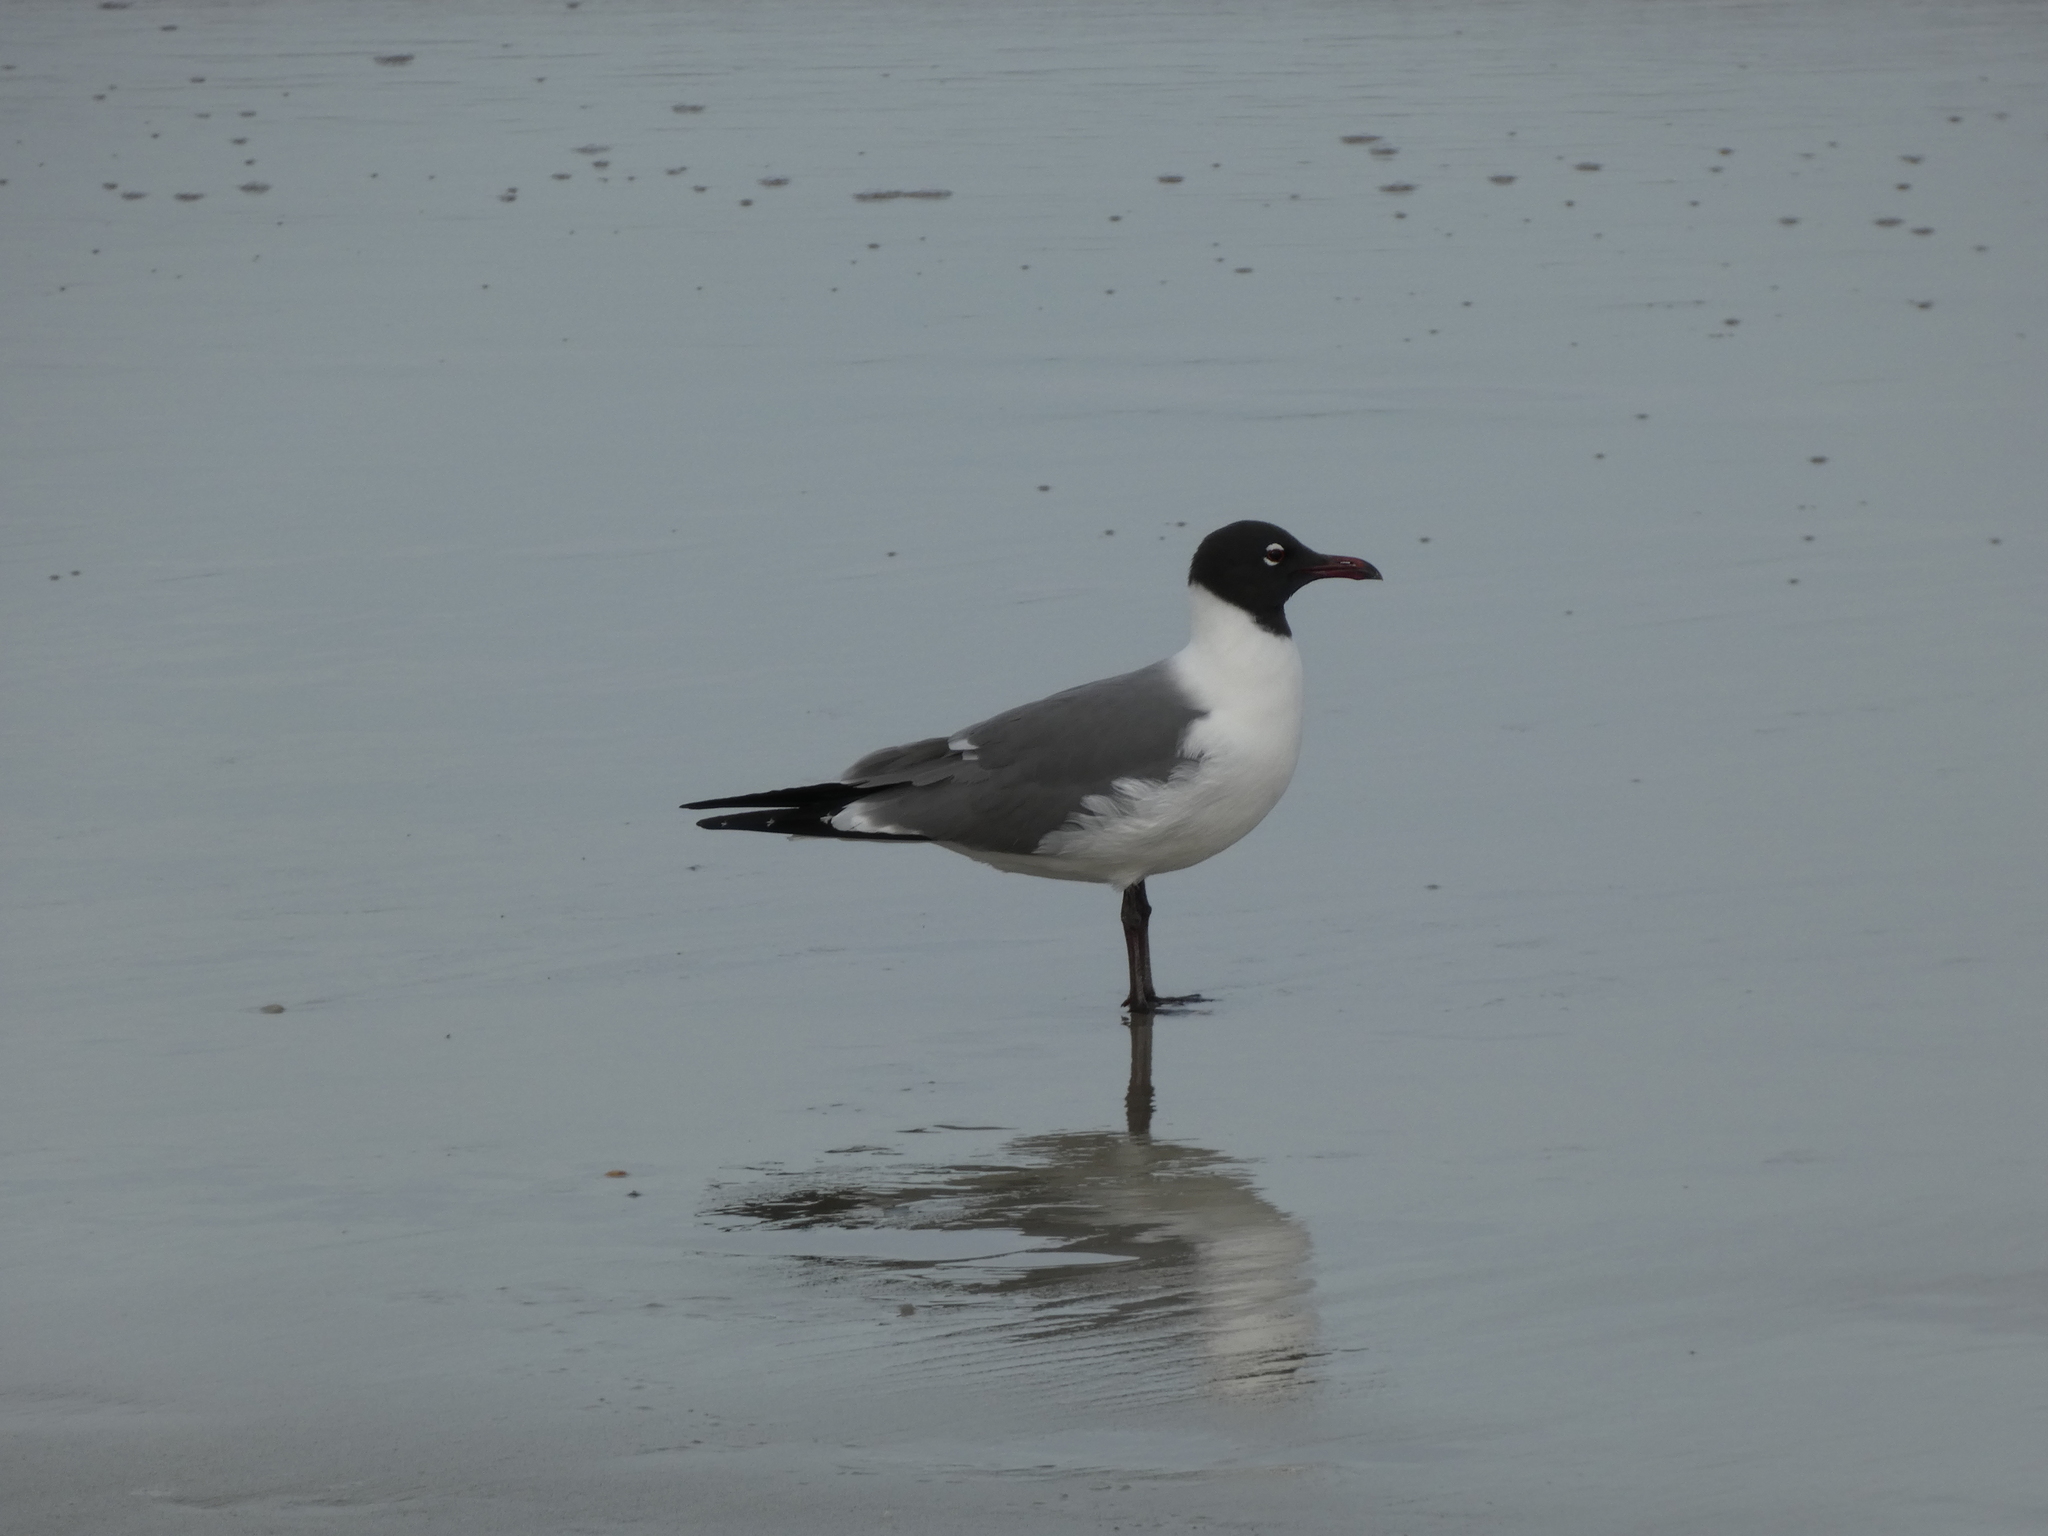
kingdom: Animalia
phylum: Chordata
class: Aves
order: Charadriiformes
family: Laridae
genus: Leucophaeus
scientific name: Leucophaeus atricilla
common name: Laughing gull
